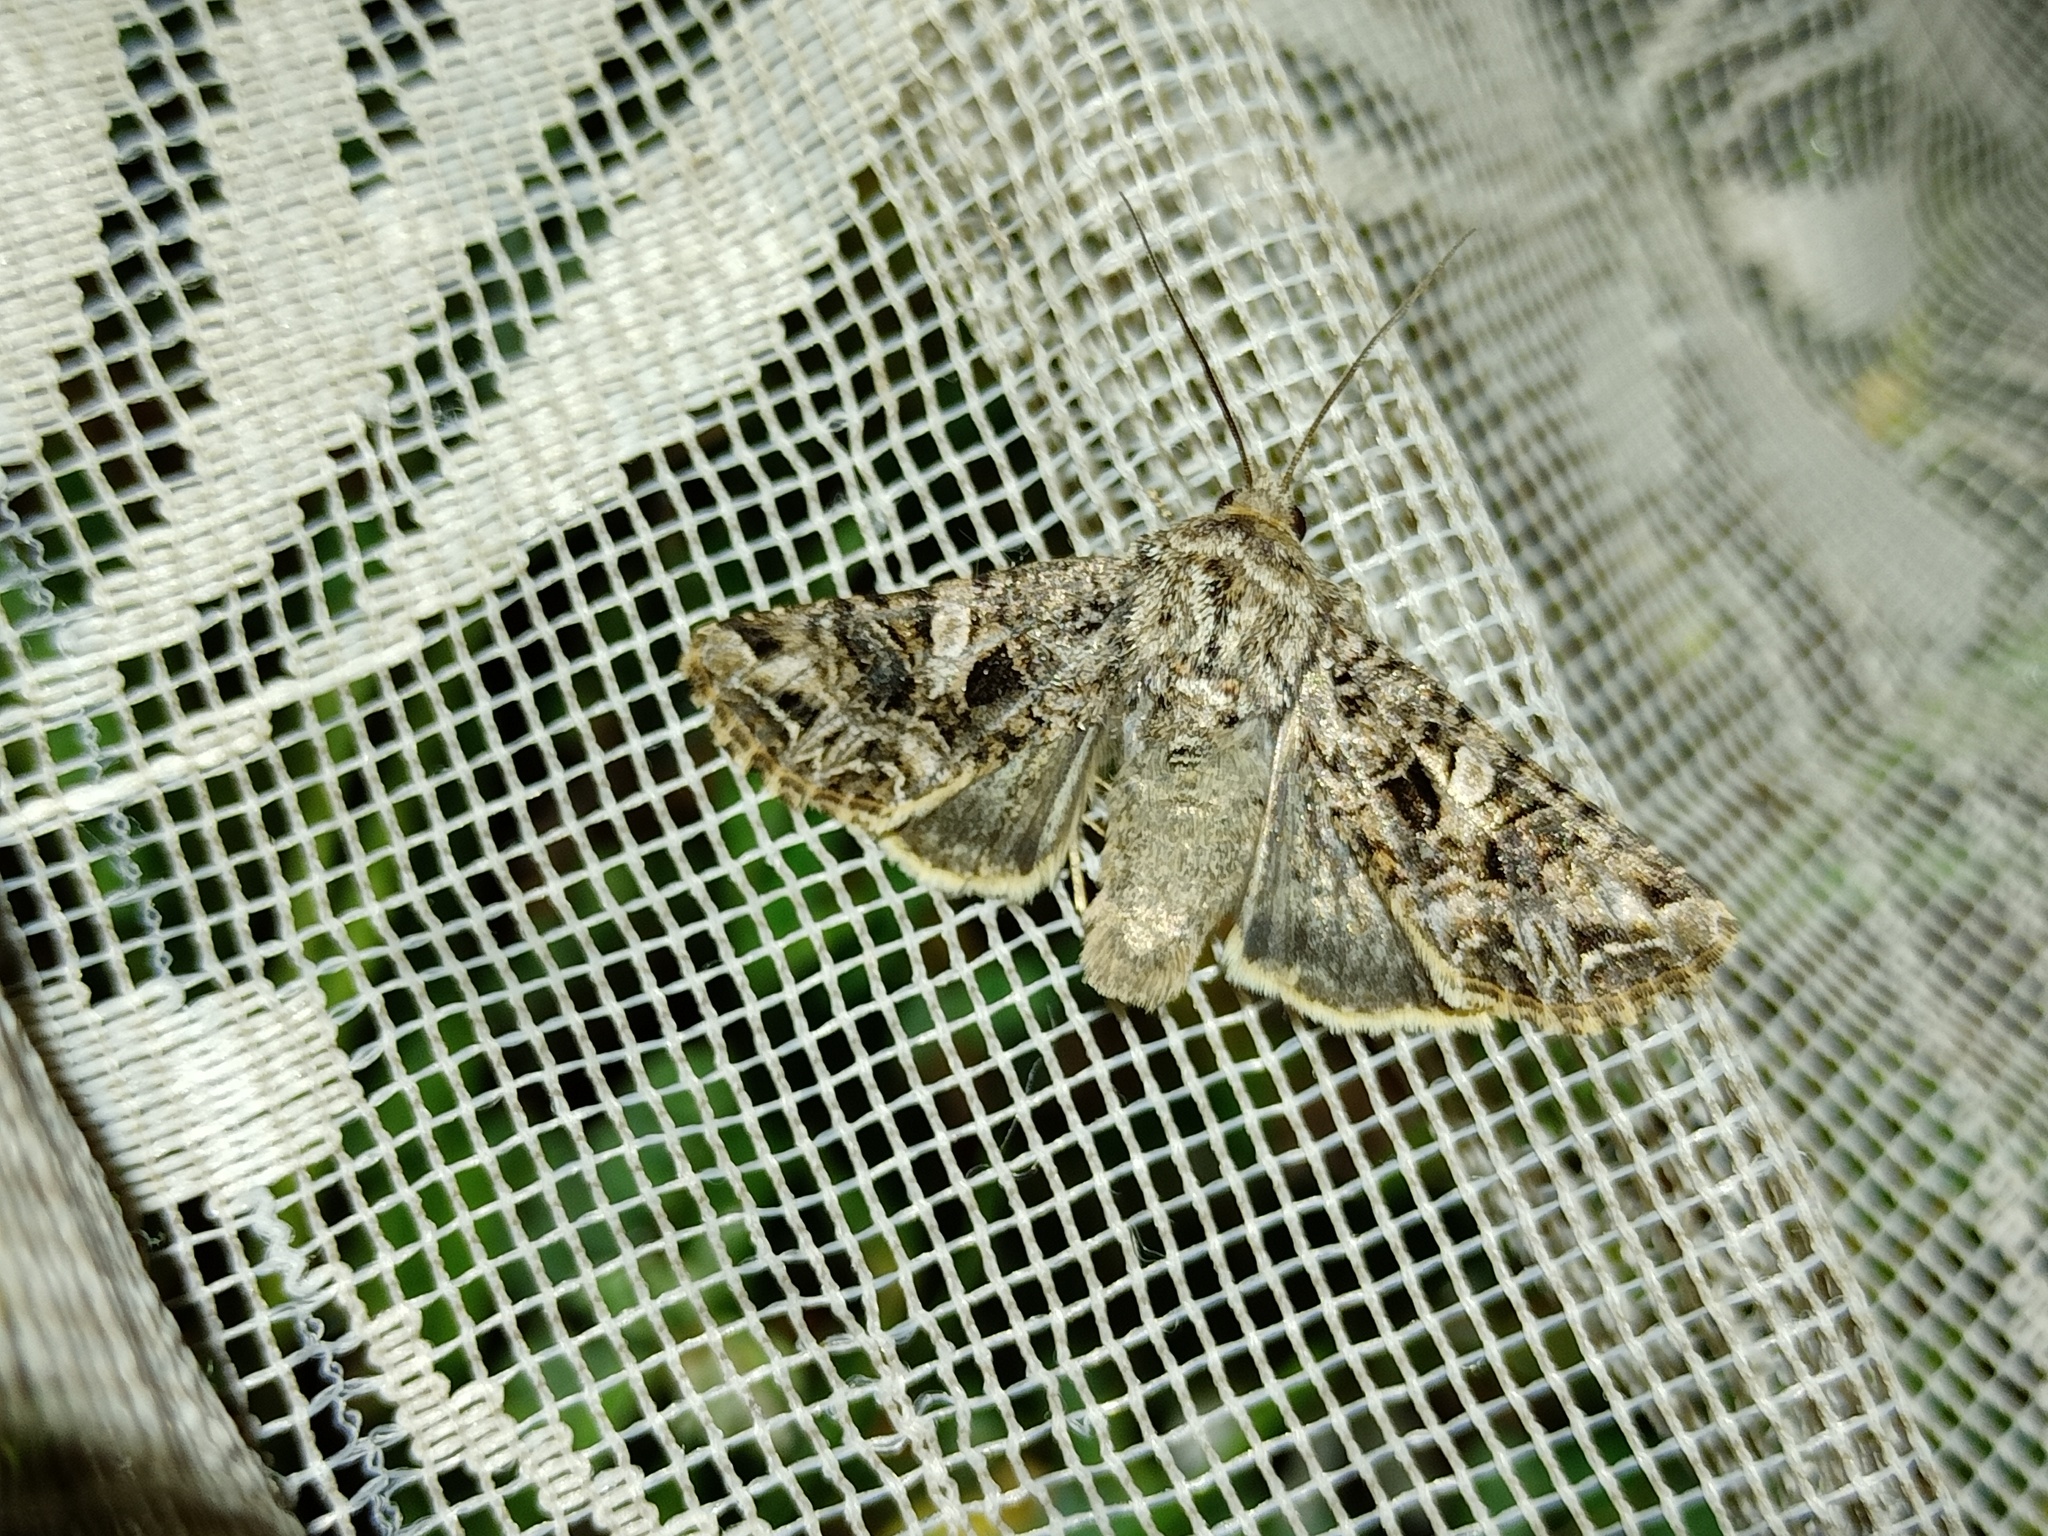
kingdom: Animalia
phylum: Arthropoda
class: Insecta
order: Lepidoptera
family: Noctuidae
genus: Anarta
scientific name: Anarta odontites
